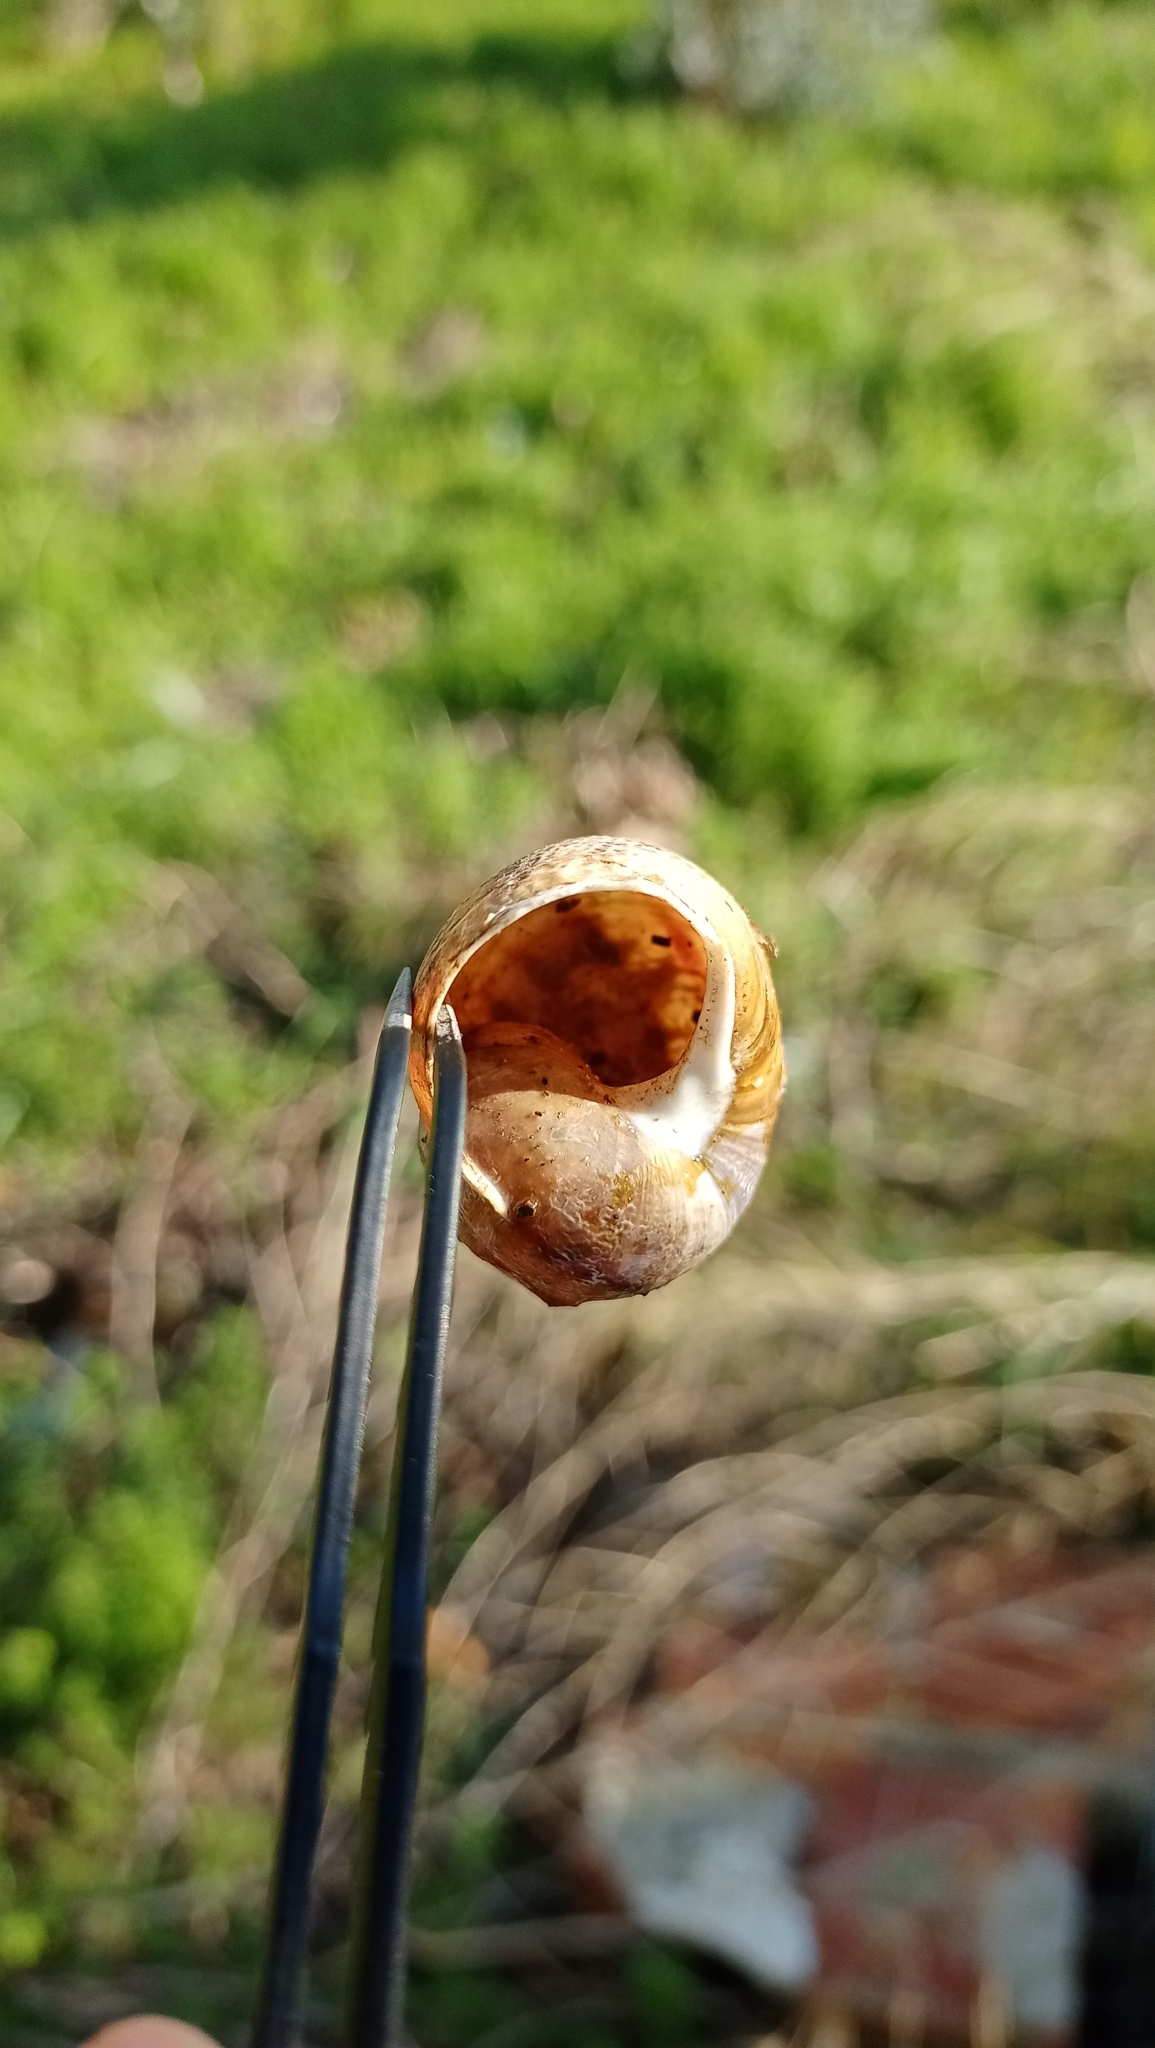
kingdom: Animalia
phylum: Mollusca
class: Gastropoda
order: Stylommatophora
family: Helicidae
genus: Cornu
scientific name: Cornu aspersum
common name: Brown garden snail
